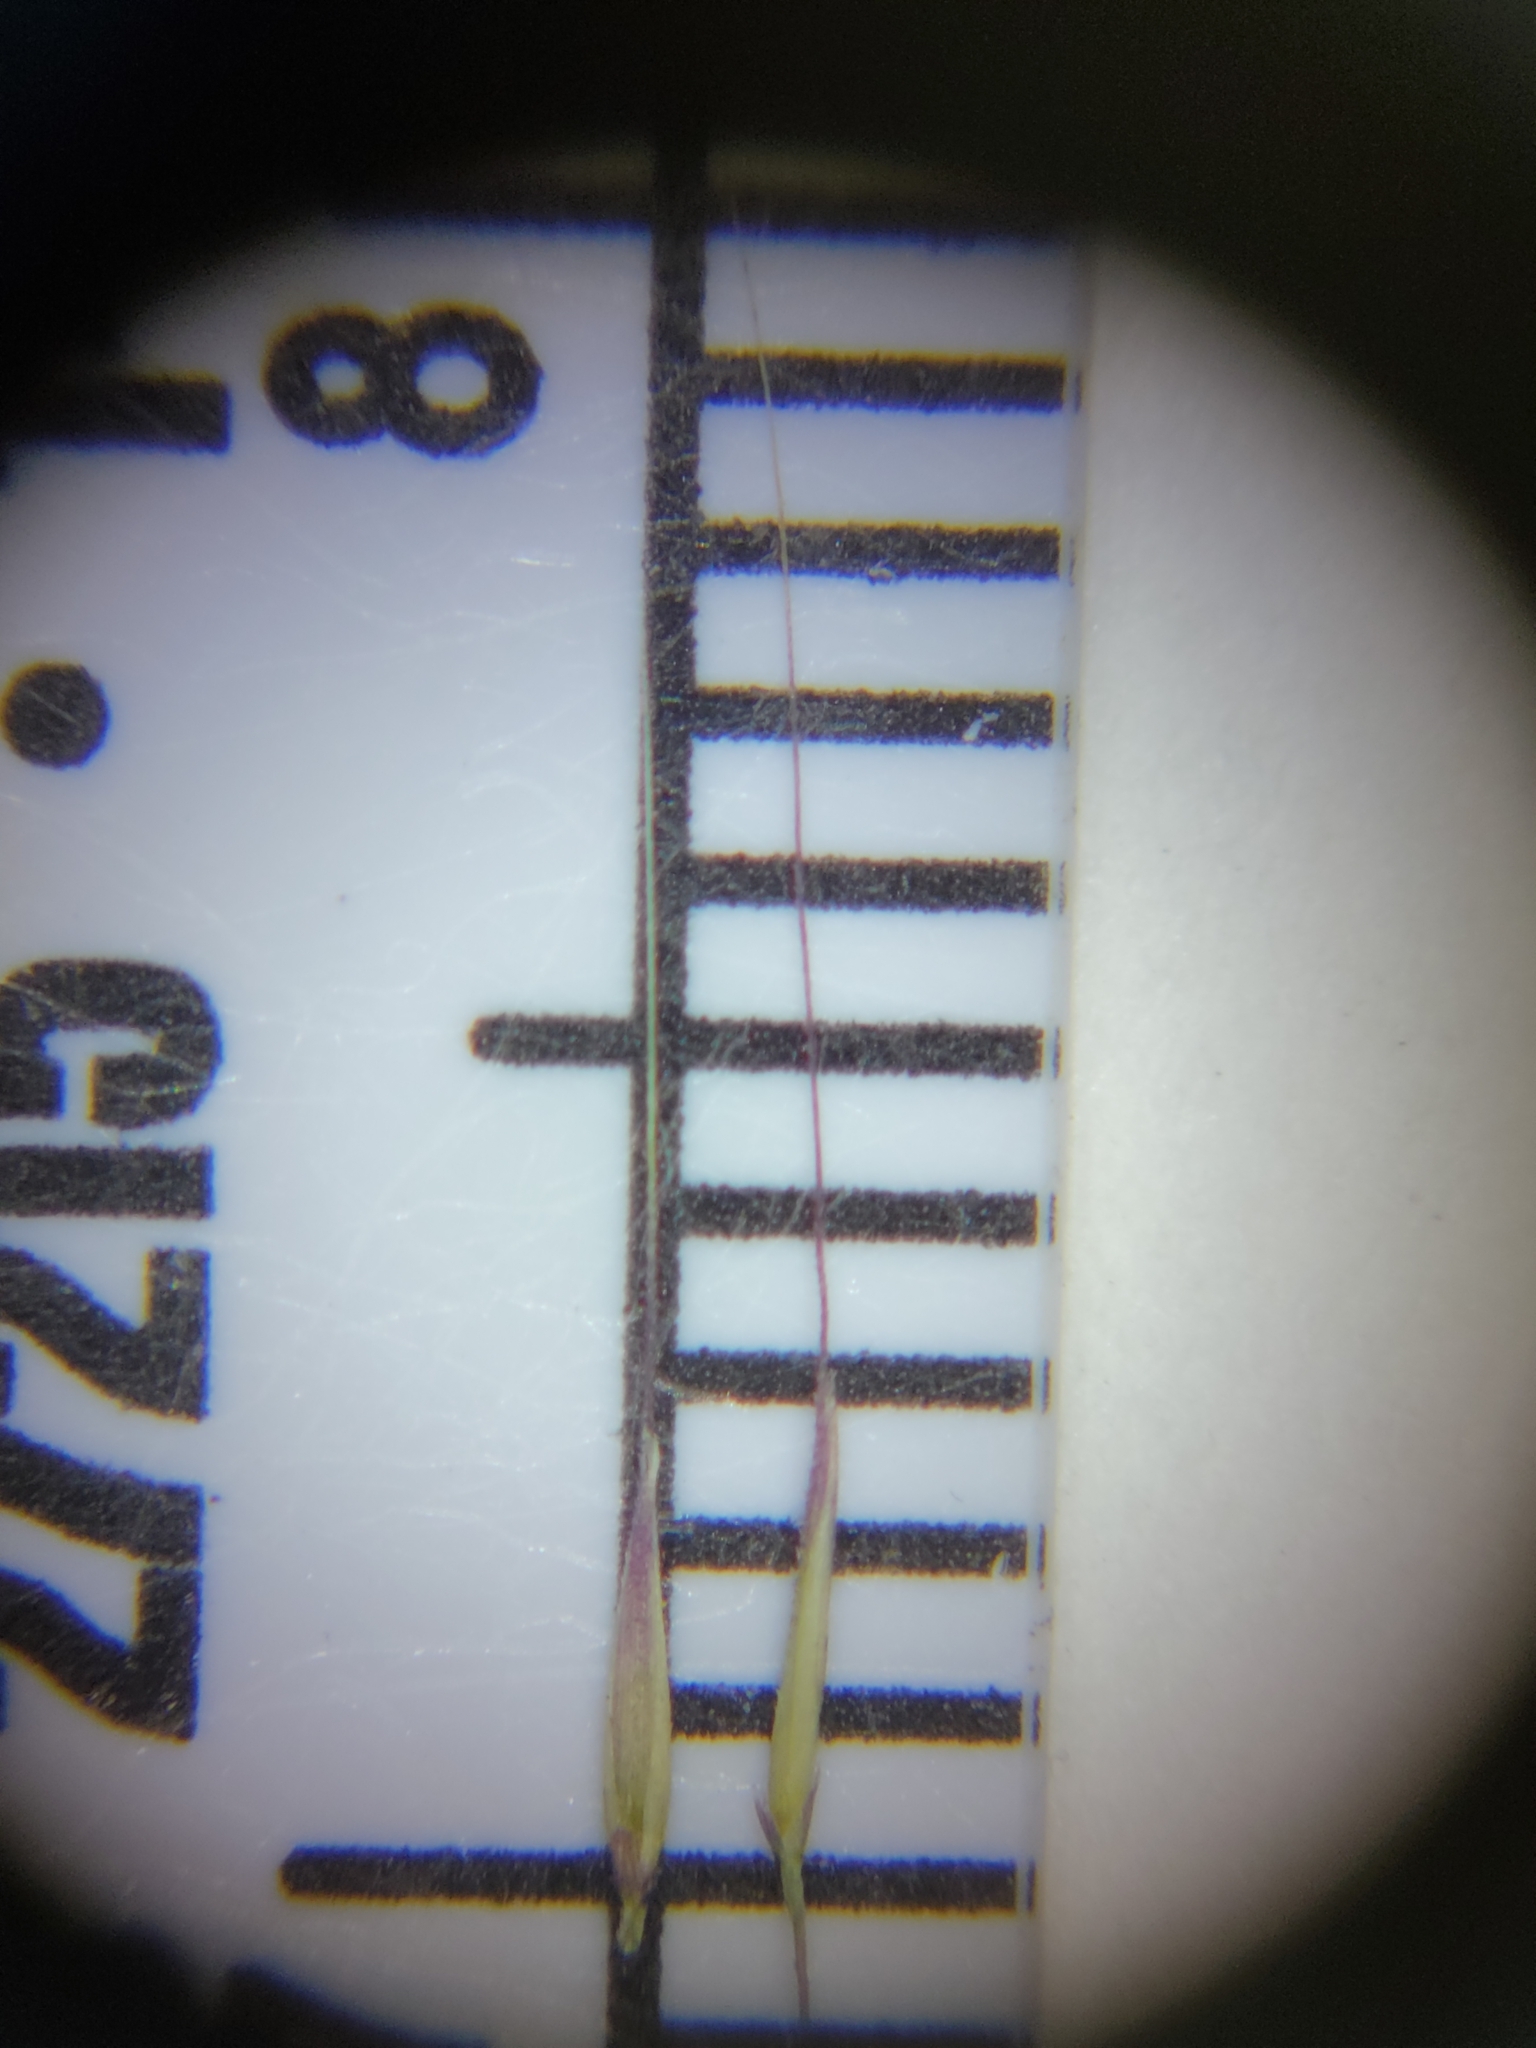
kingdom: Plantae
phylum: Tracheophyta
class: Liliopsida
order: Poales
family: Poaceae
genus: Muhlenbergia
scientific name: Muhlenbergia capillaris
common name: Purple grass
